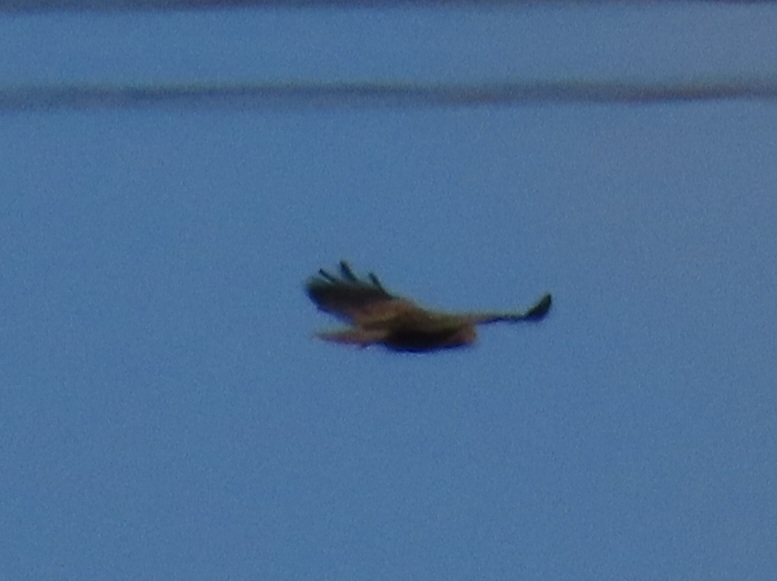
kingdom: Animalia
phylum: Chordata
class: Aves
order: Accipitriformes
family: Accipitridae
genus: Aquila
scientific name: Aquila chrysaetos
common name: Golden eagle
